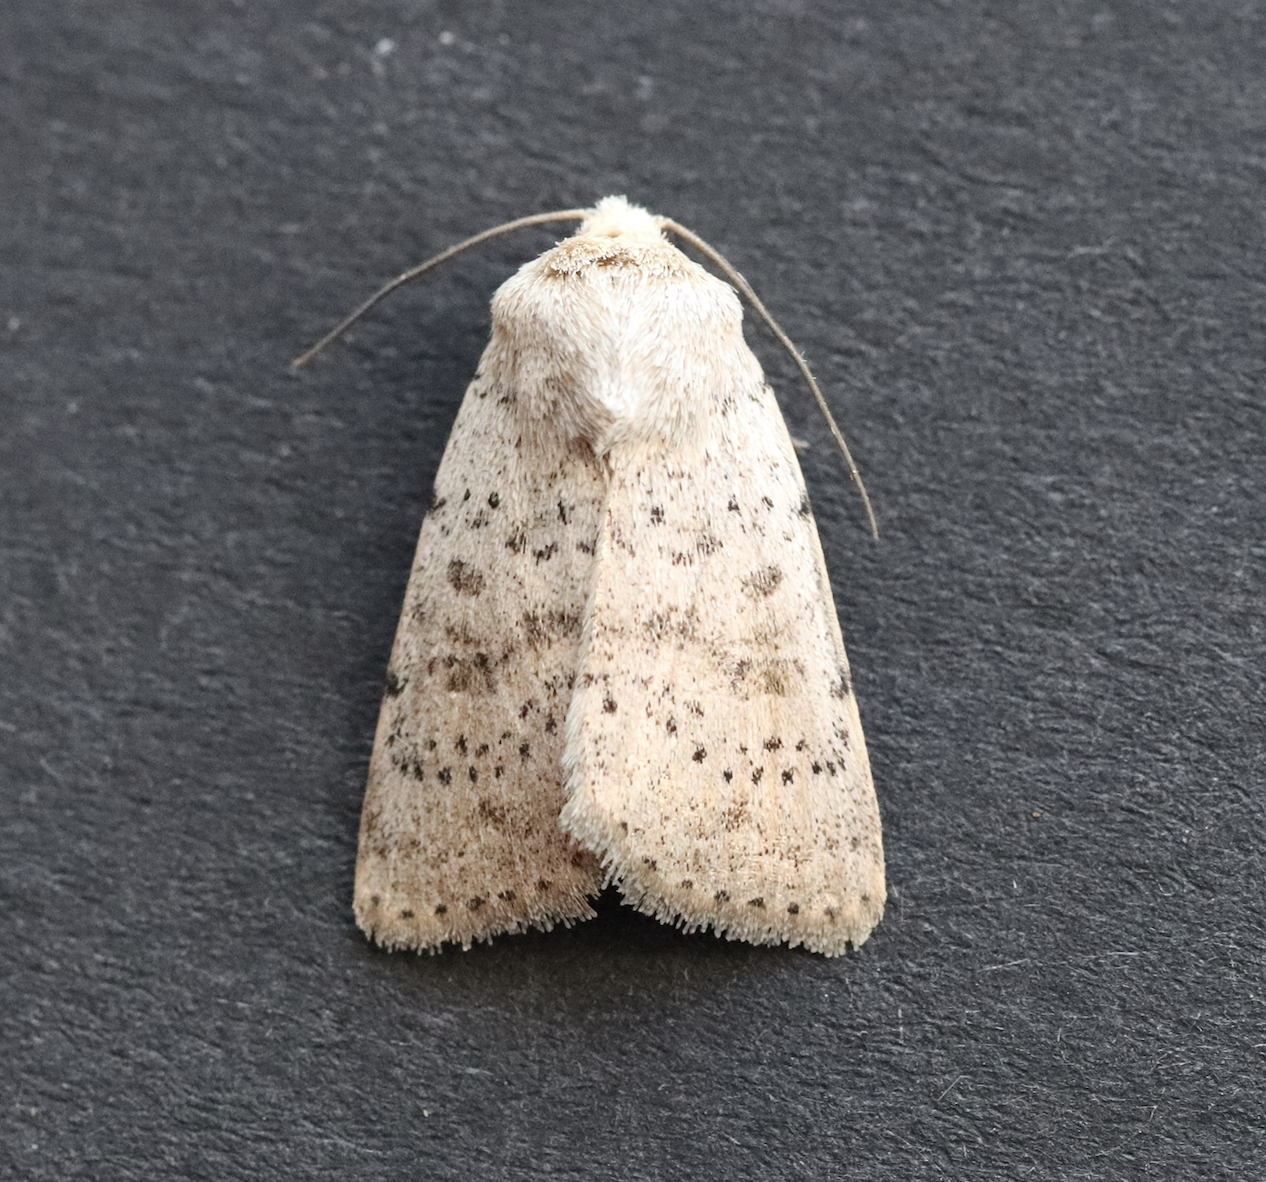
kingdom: Animalia
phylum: Arthropoda
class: Insecta
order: Lepidoptera
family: Noctuidae
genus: Hoplodrina
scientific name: Hoplodrina respersa
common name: Sprinkled rustic
